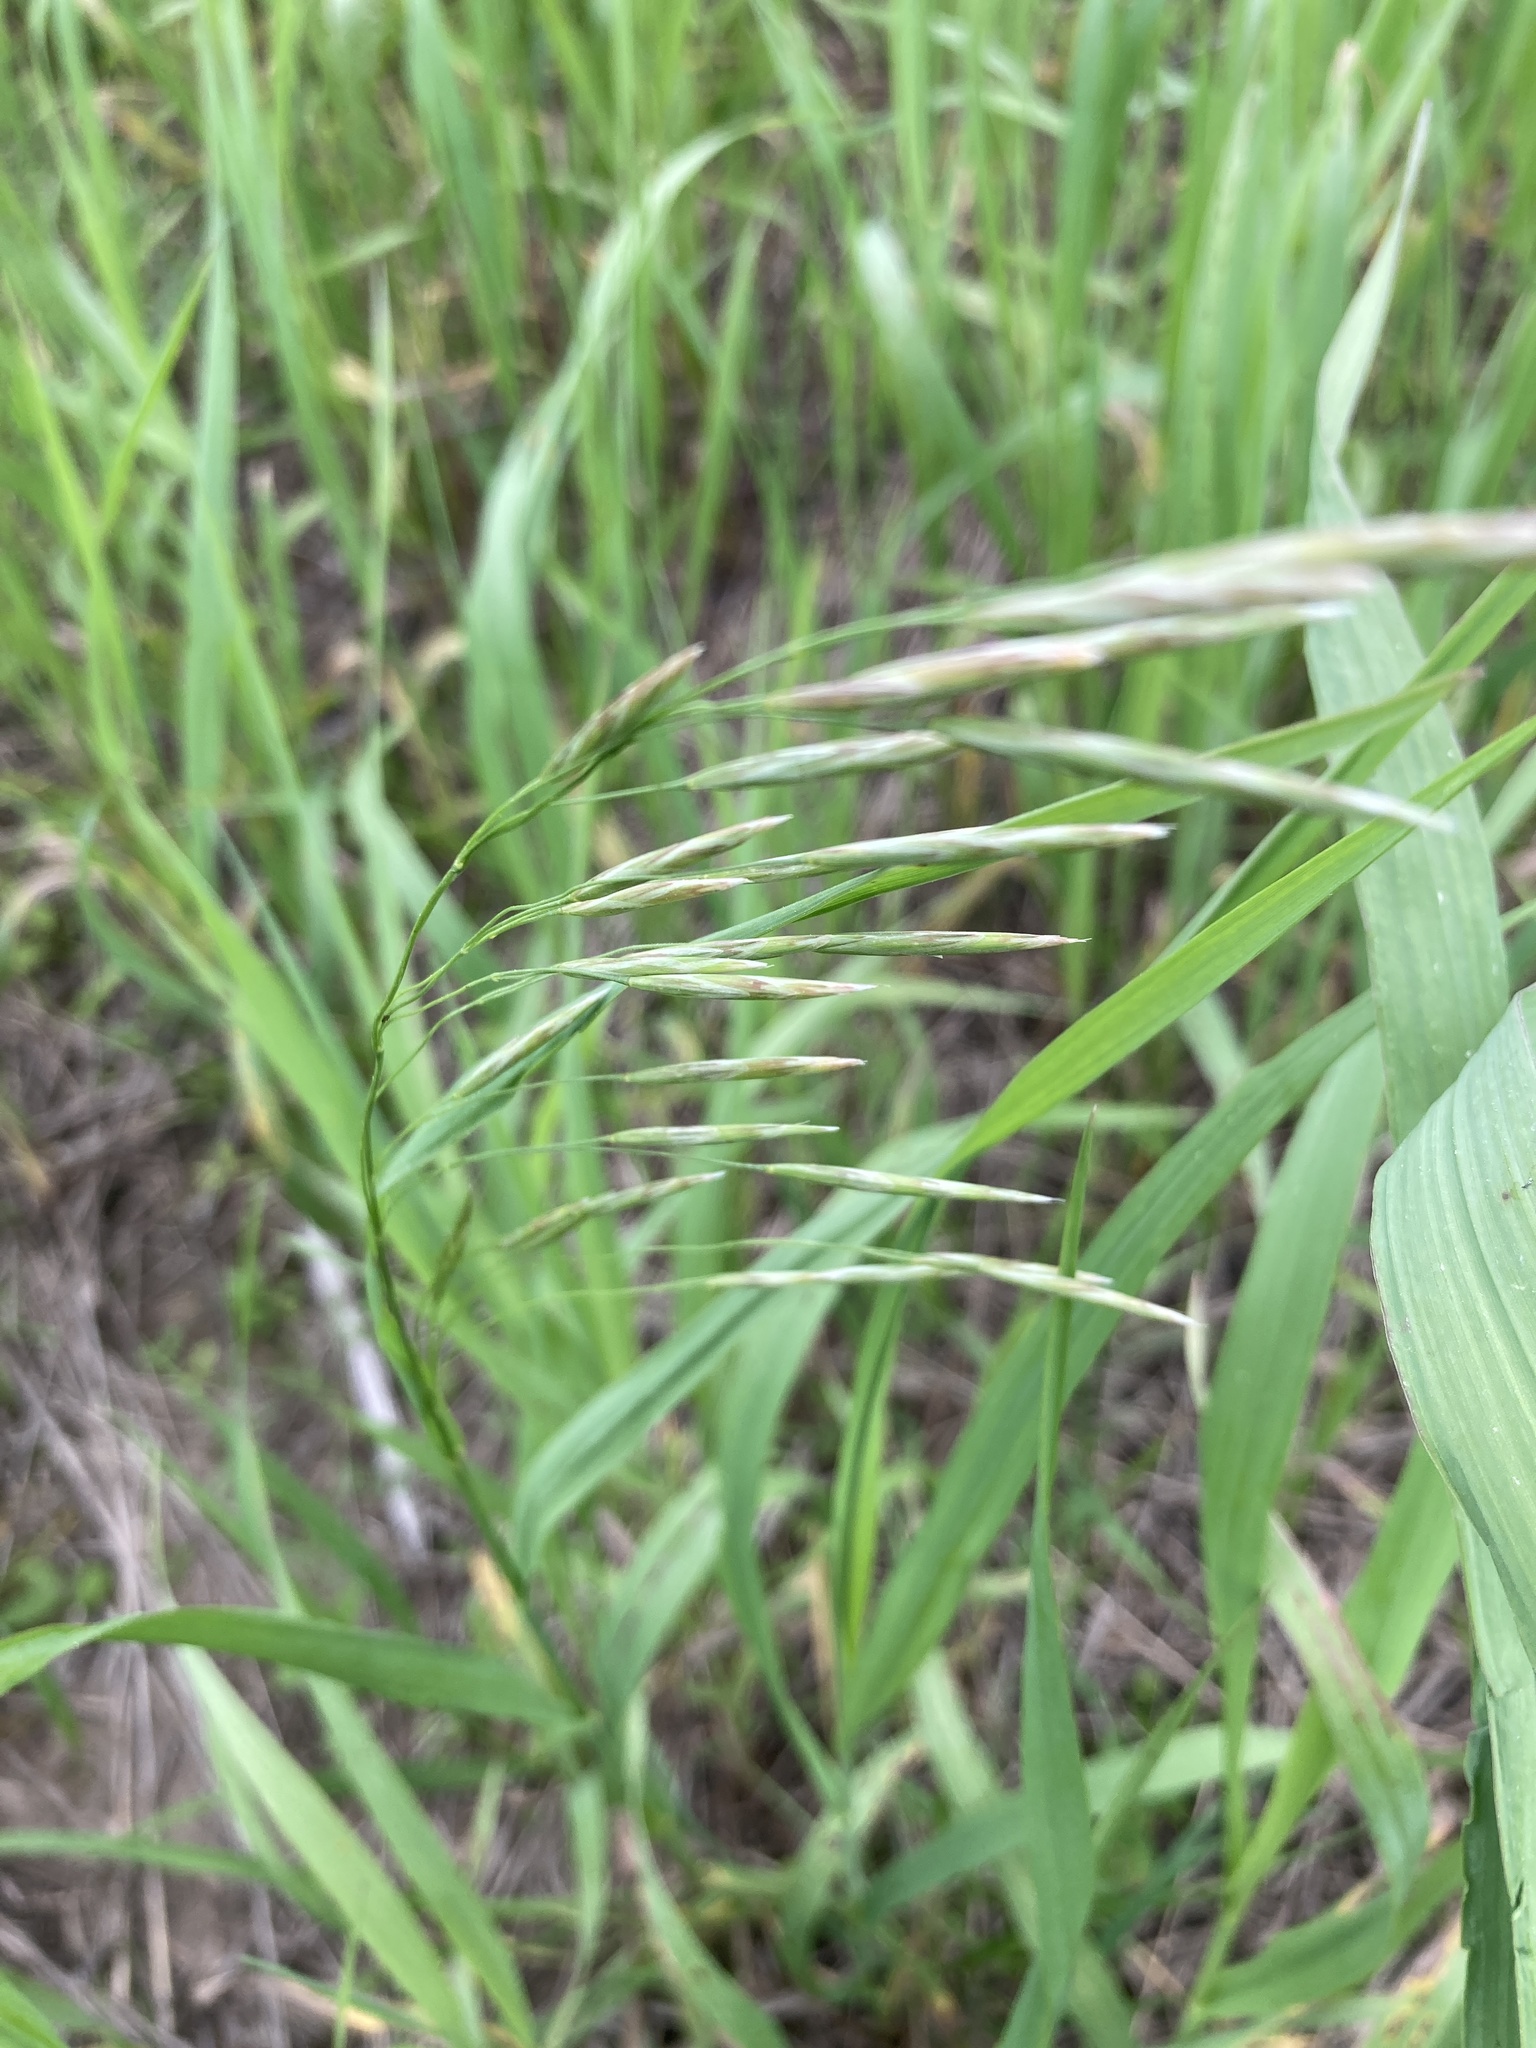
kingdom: Plantae
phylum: Tracheophyta
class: Liliopsida
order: Poales
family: Poaceae
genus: Bromus
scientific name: Bromus inermis
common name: Smooth brome
